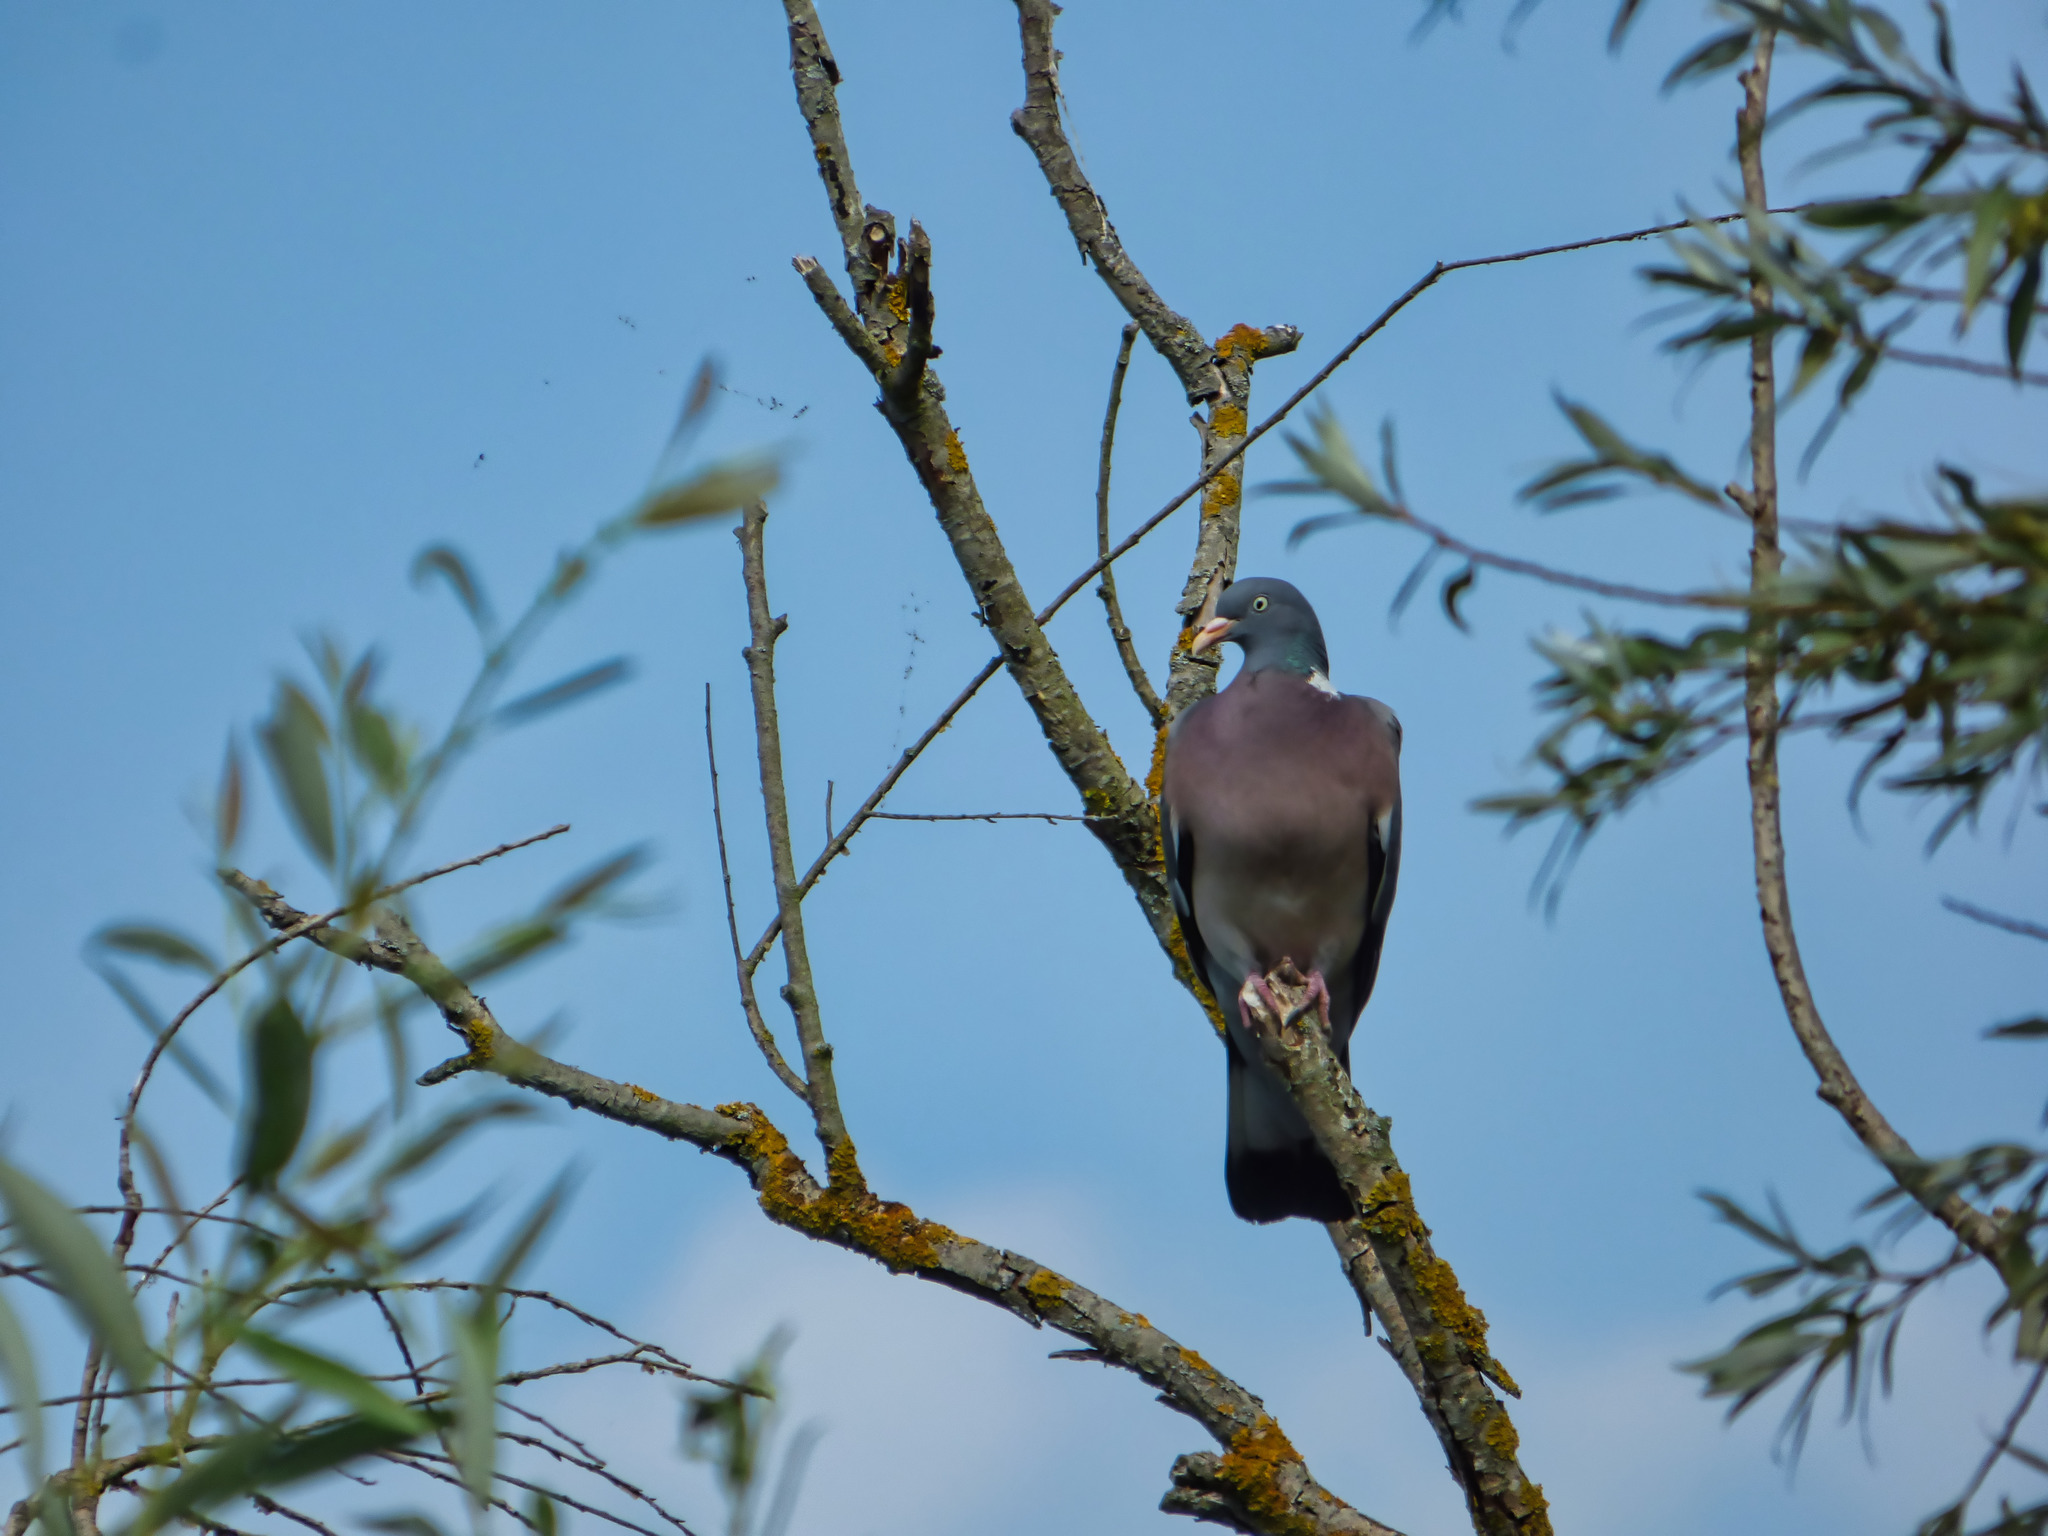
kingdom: Animalia
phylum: Chordata
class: Aves
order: Columbiformes
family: Columbidae
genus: Columba
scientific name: Columba palumbus
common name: Common wood pigeon
